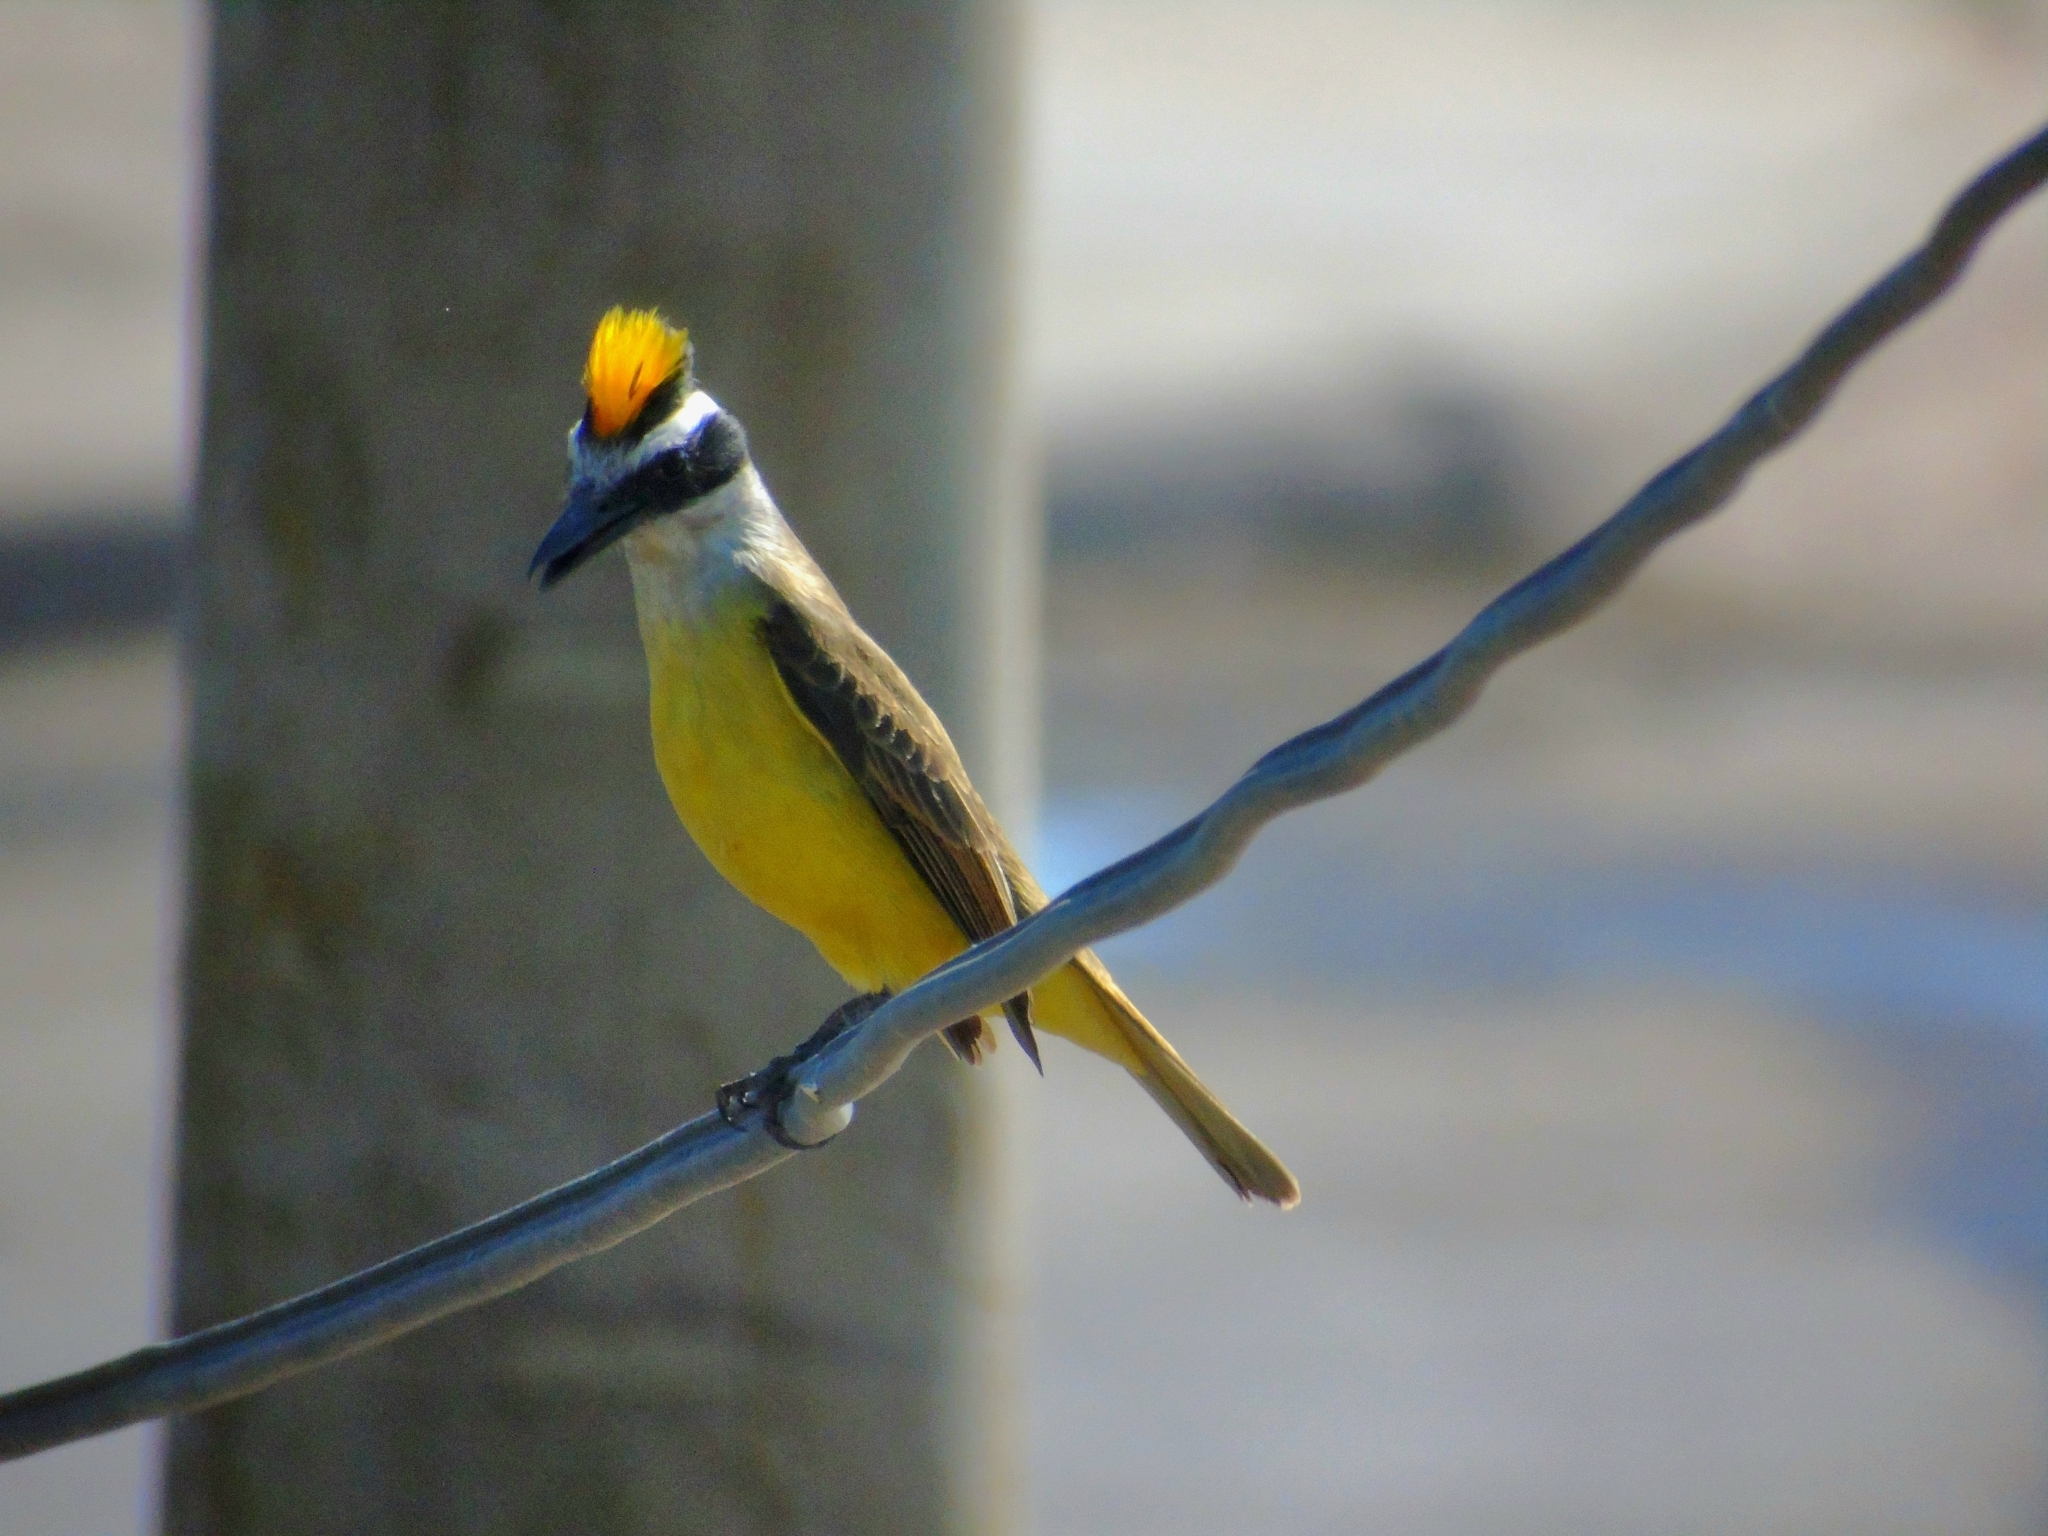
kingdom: Animalia
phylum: Chordata
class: Aves
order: Passeriformes
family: Tyrannidae
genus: Pitangus
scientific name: Pitangus sulphuratus
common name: Great kiskadee
